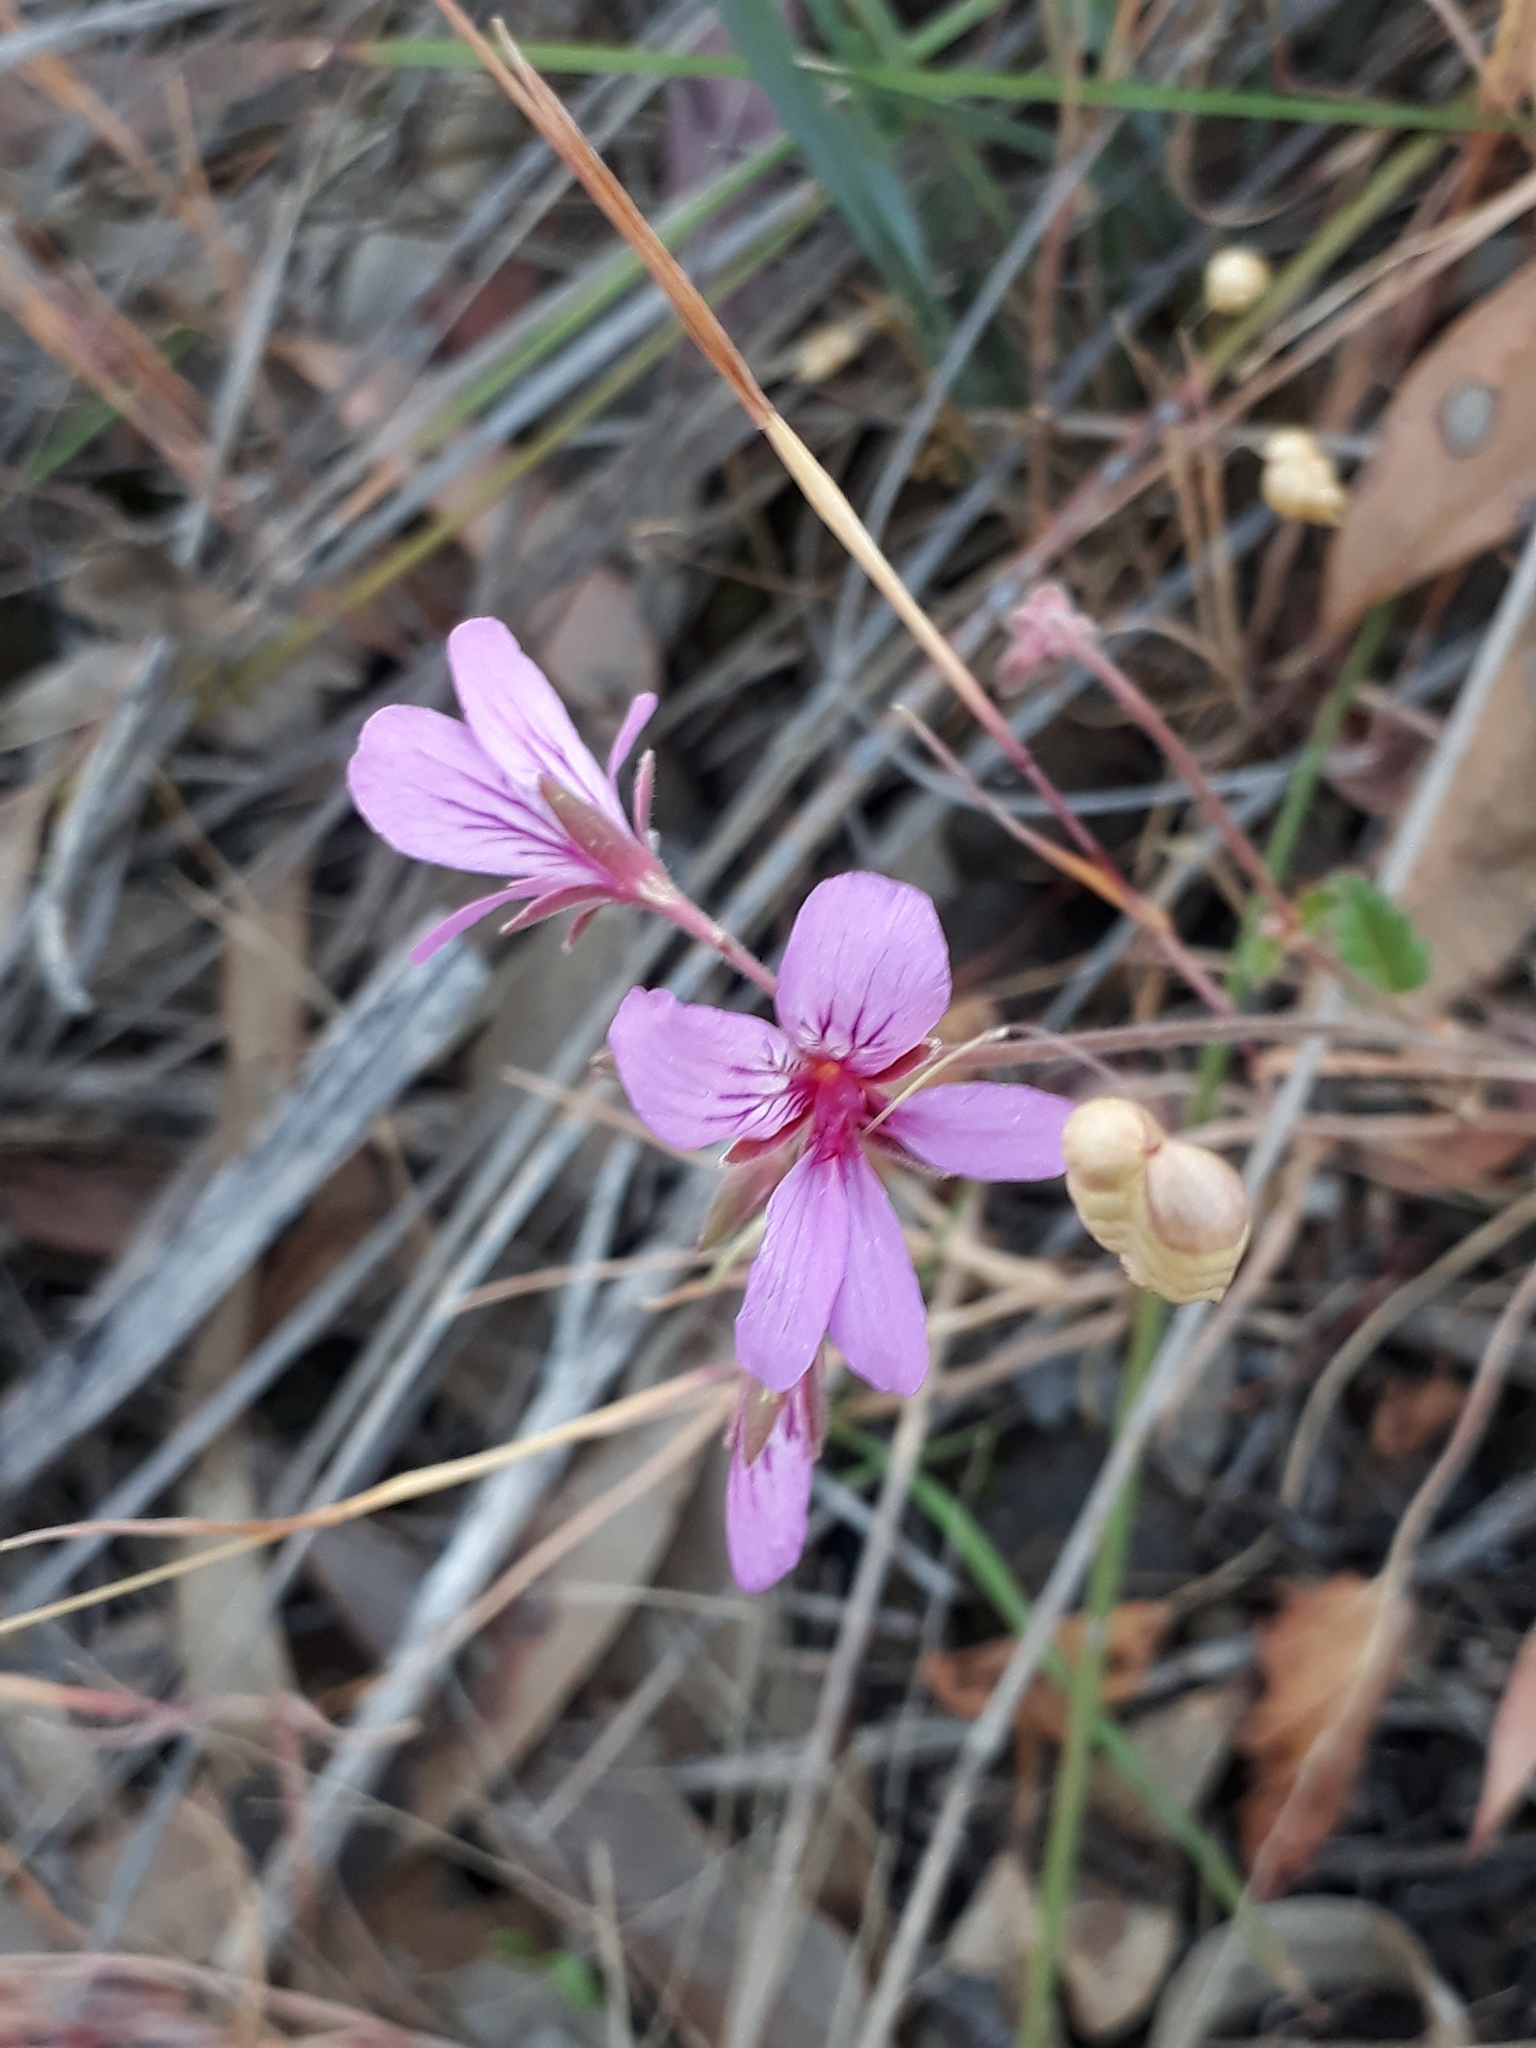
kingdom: Plantae
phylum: Tracheophyta
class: Magnoliopsida
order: Geraniales
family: Geraniaceae
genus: Pelargonium
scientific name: Pelargonium australe
